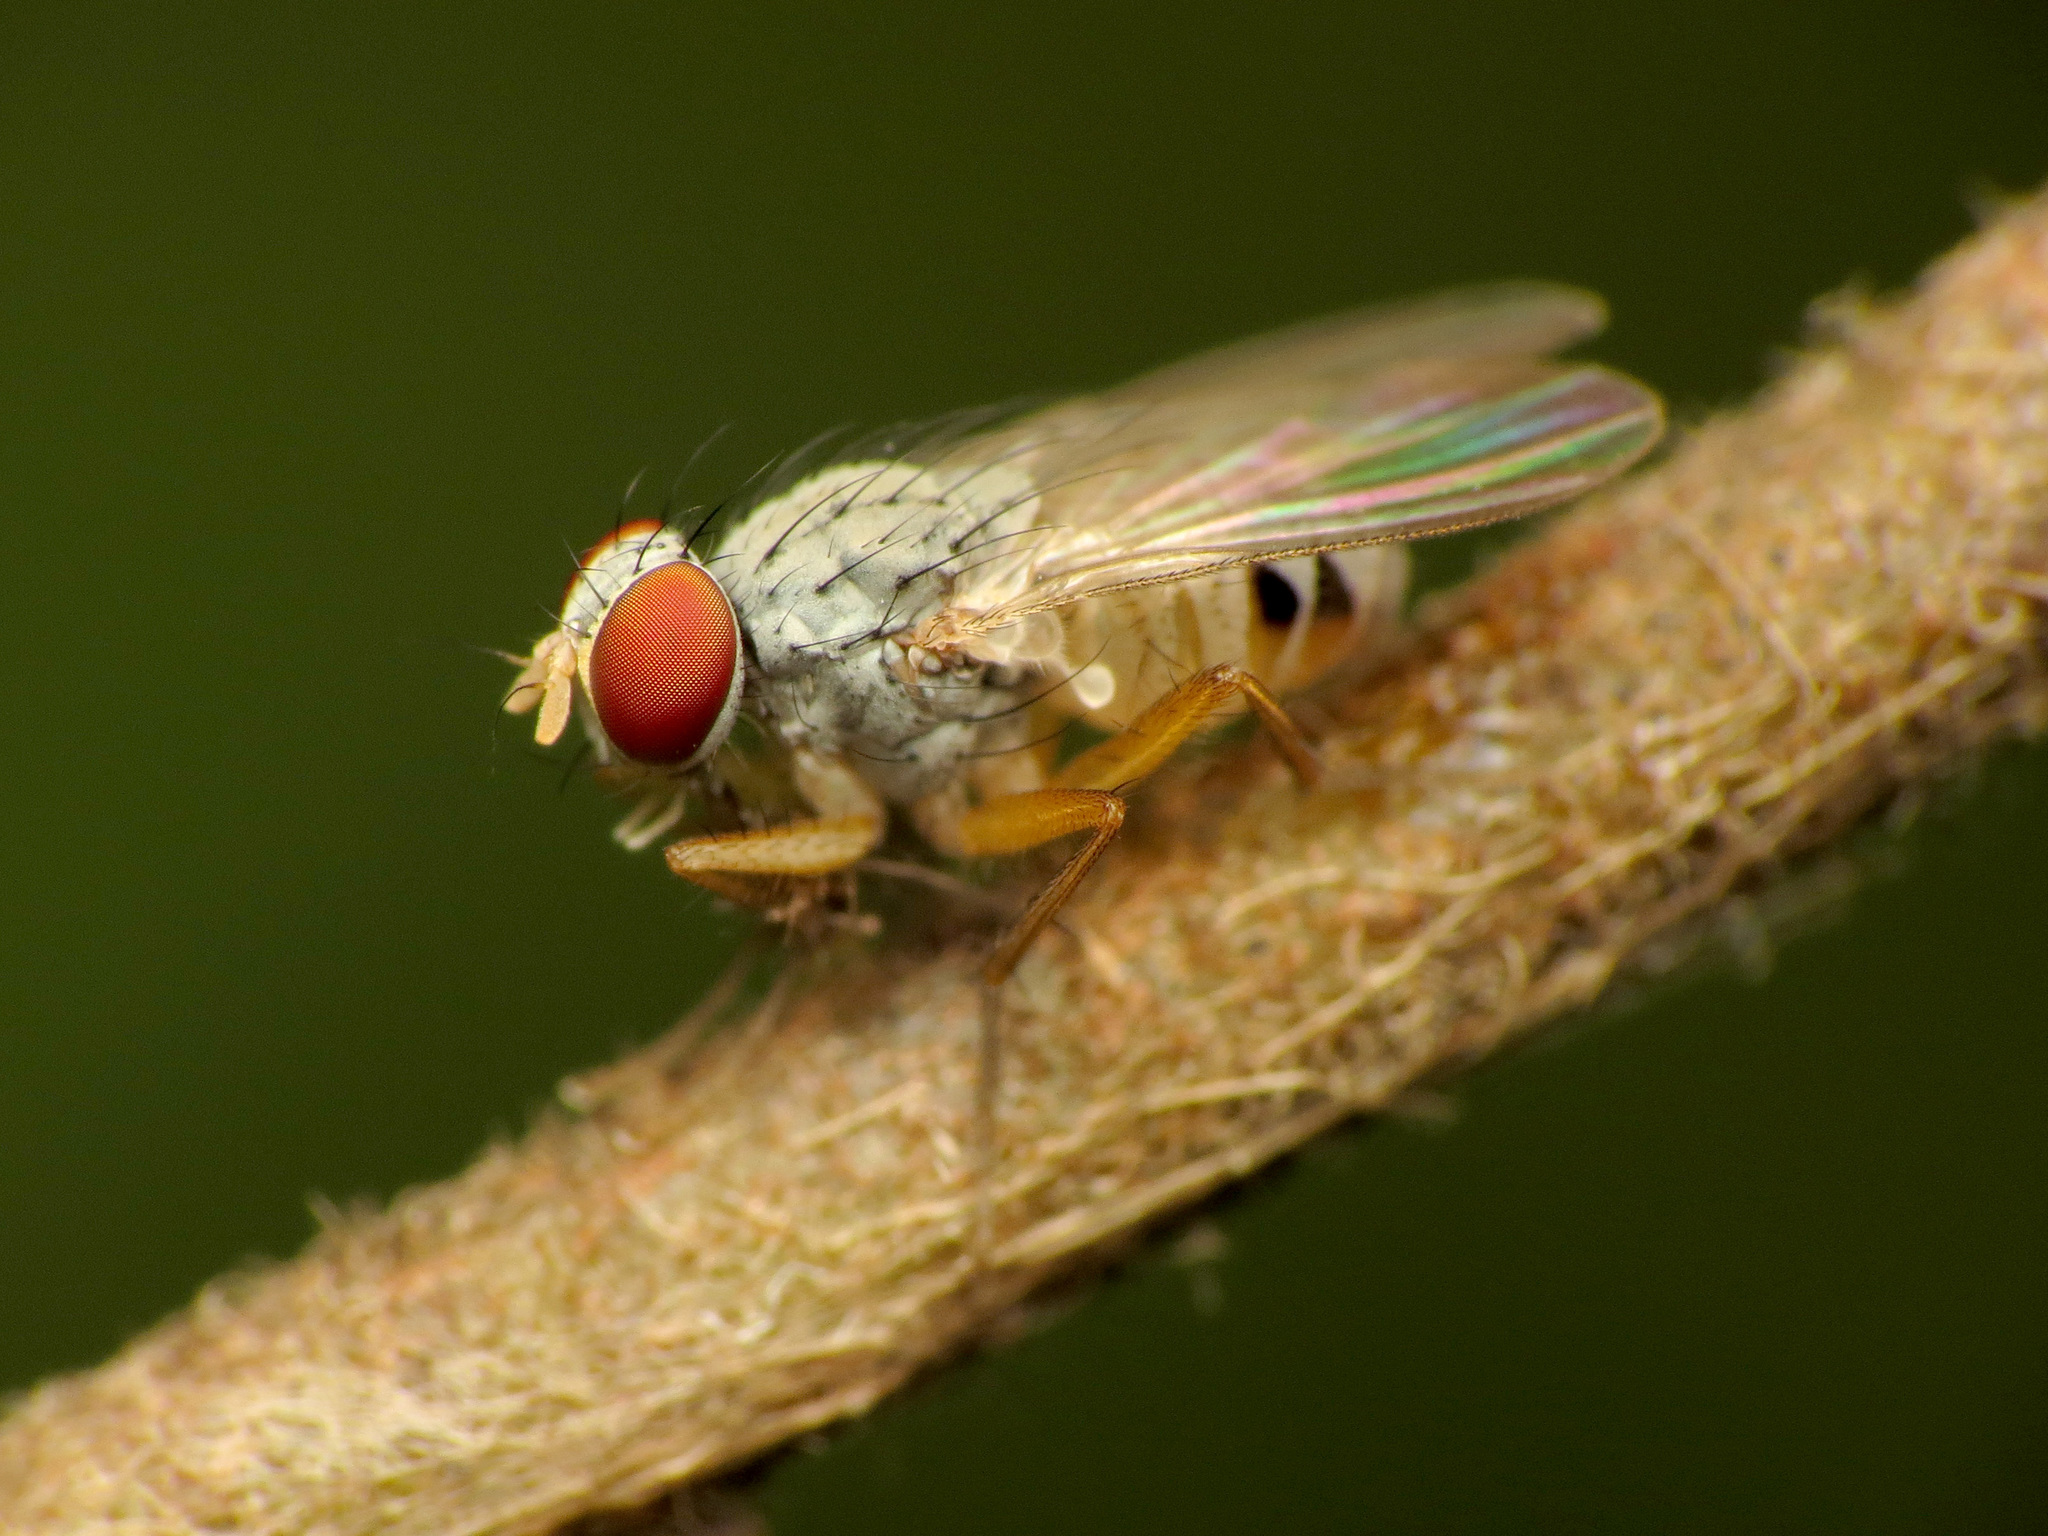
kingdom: Animalia
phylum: Arthropoda
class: Insecta
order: Diptera
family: Muscidae
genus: Neodexiopsis
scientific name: Neodexiopsis calopyga
